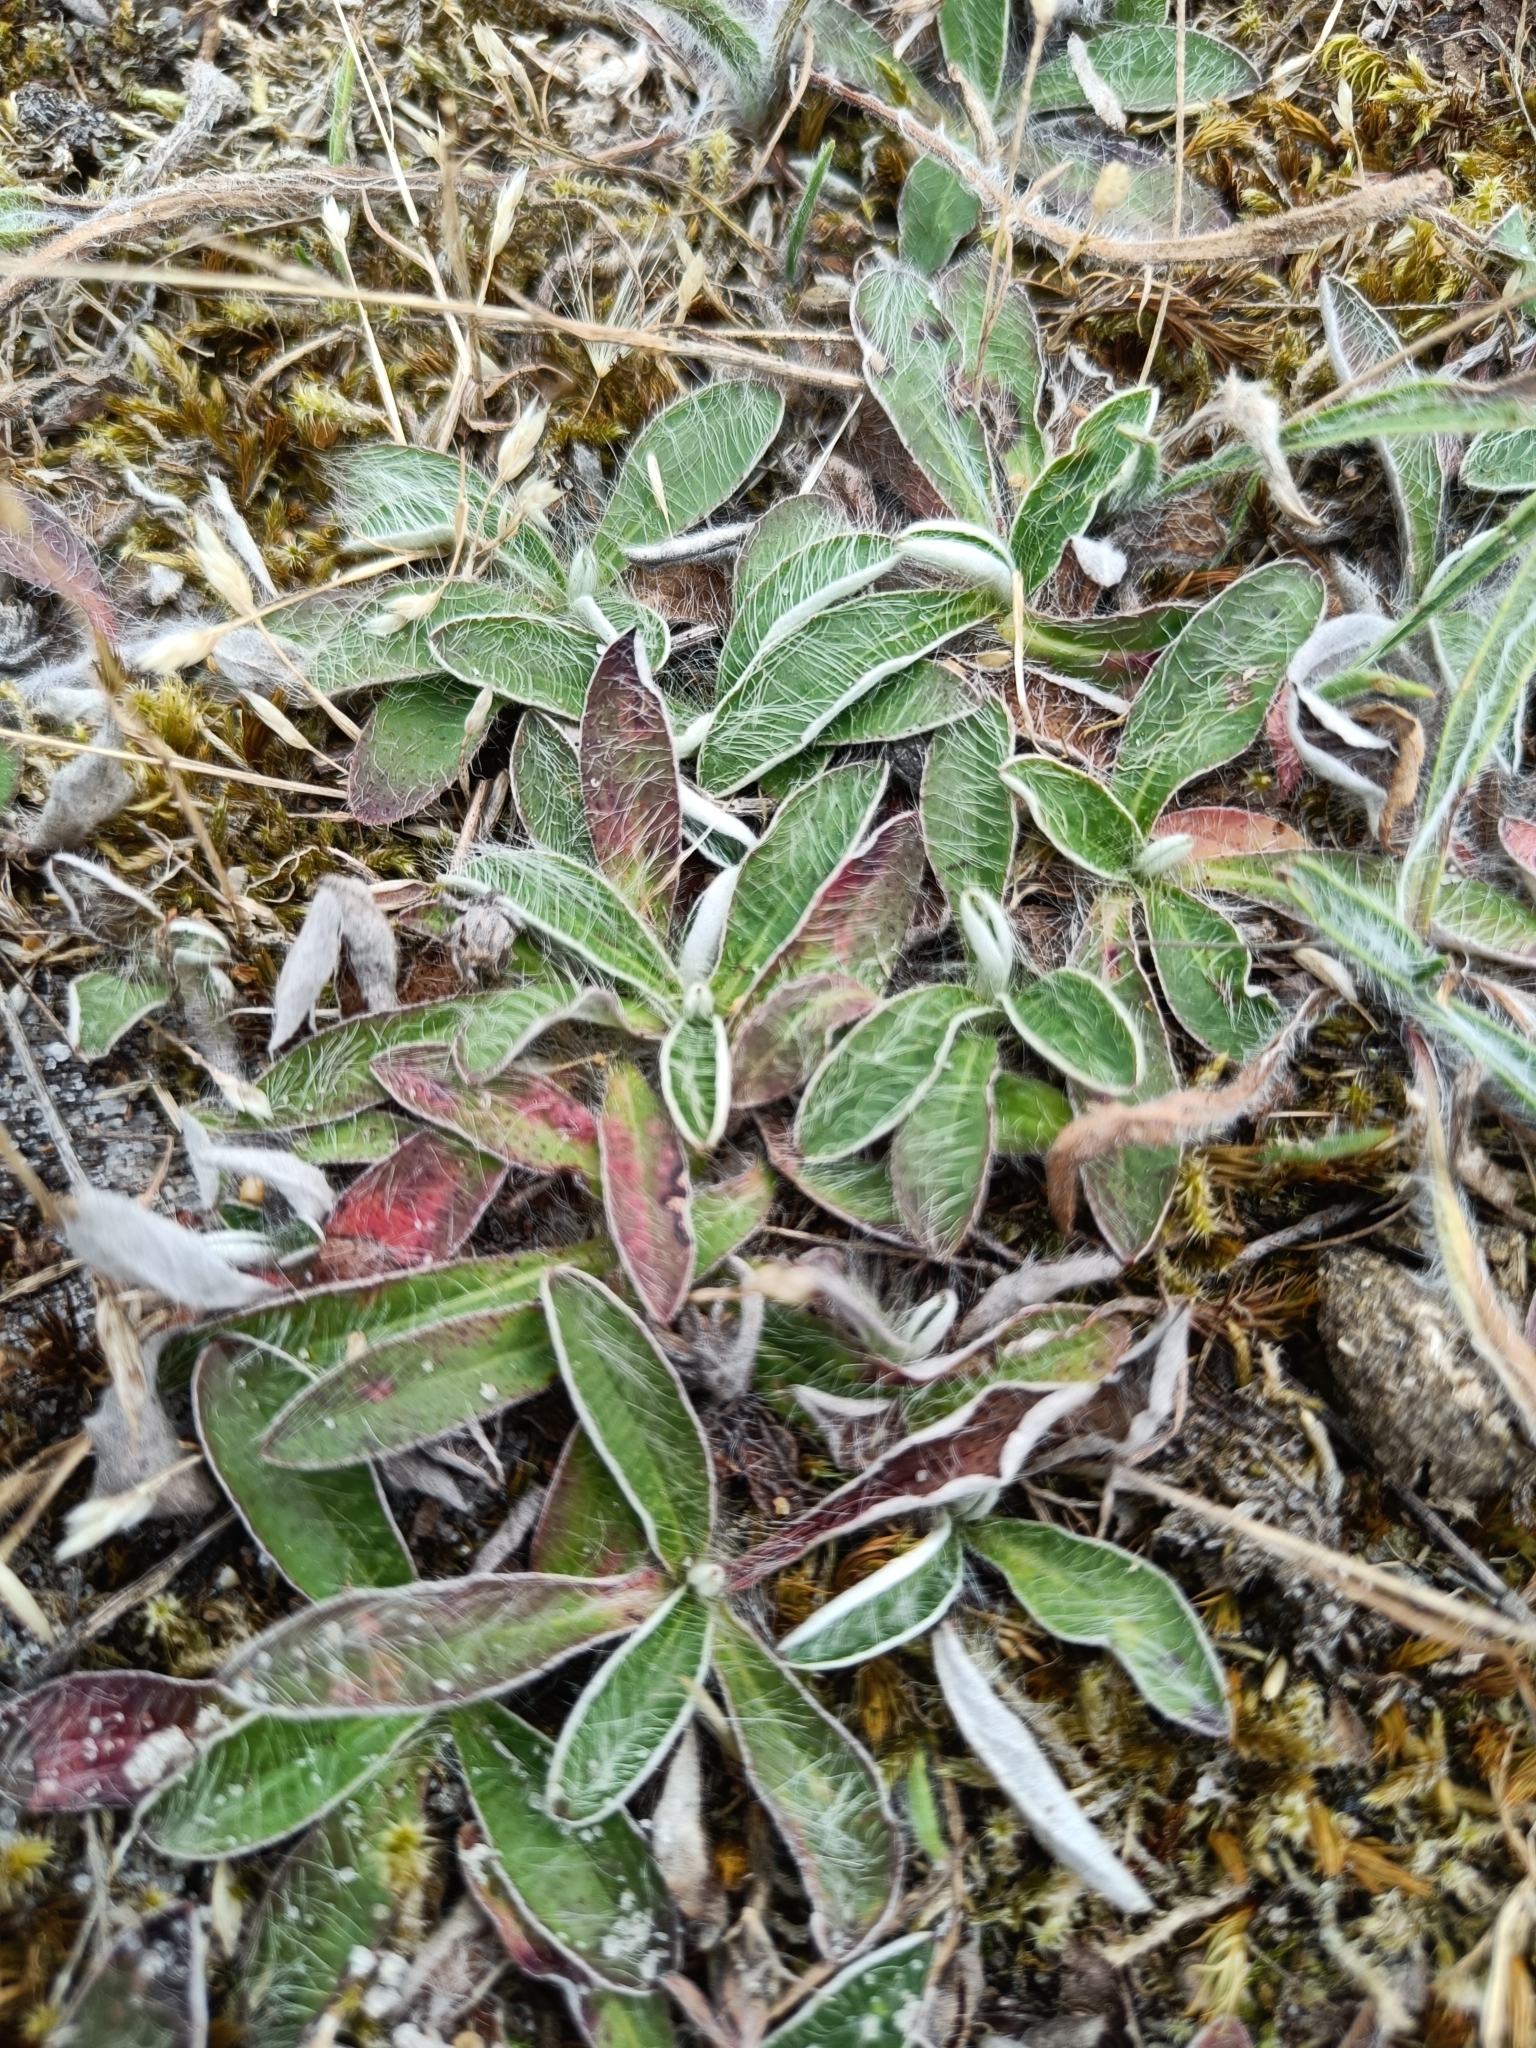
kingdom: Plantae
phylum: Tracheophyta
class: Magnoliopsida
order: Asterales
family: Asteraceae
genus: Pilosella
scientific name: Pilosella officinarum
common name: Mouse-ear hawkweed
